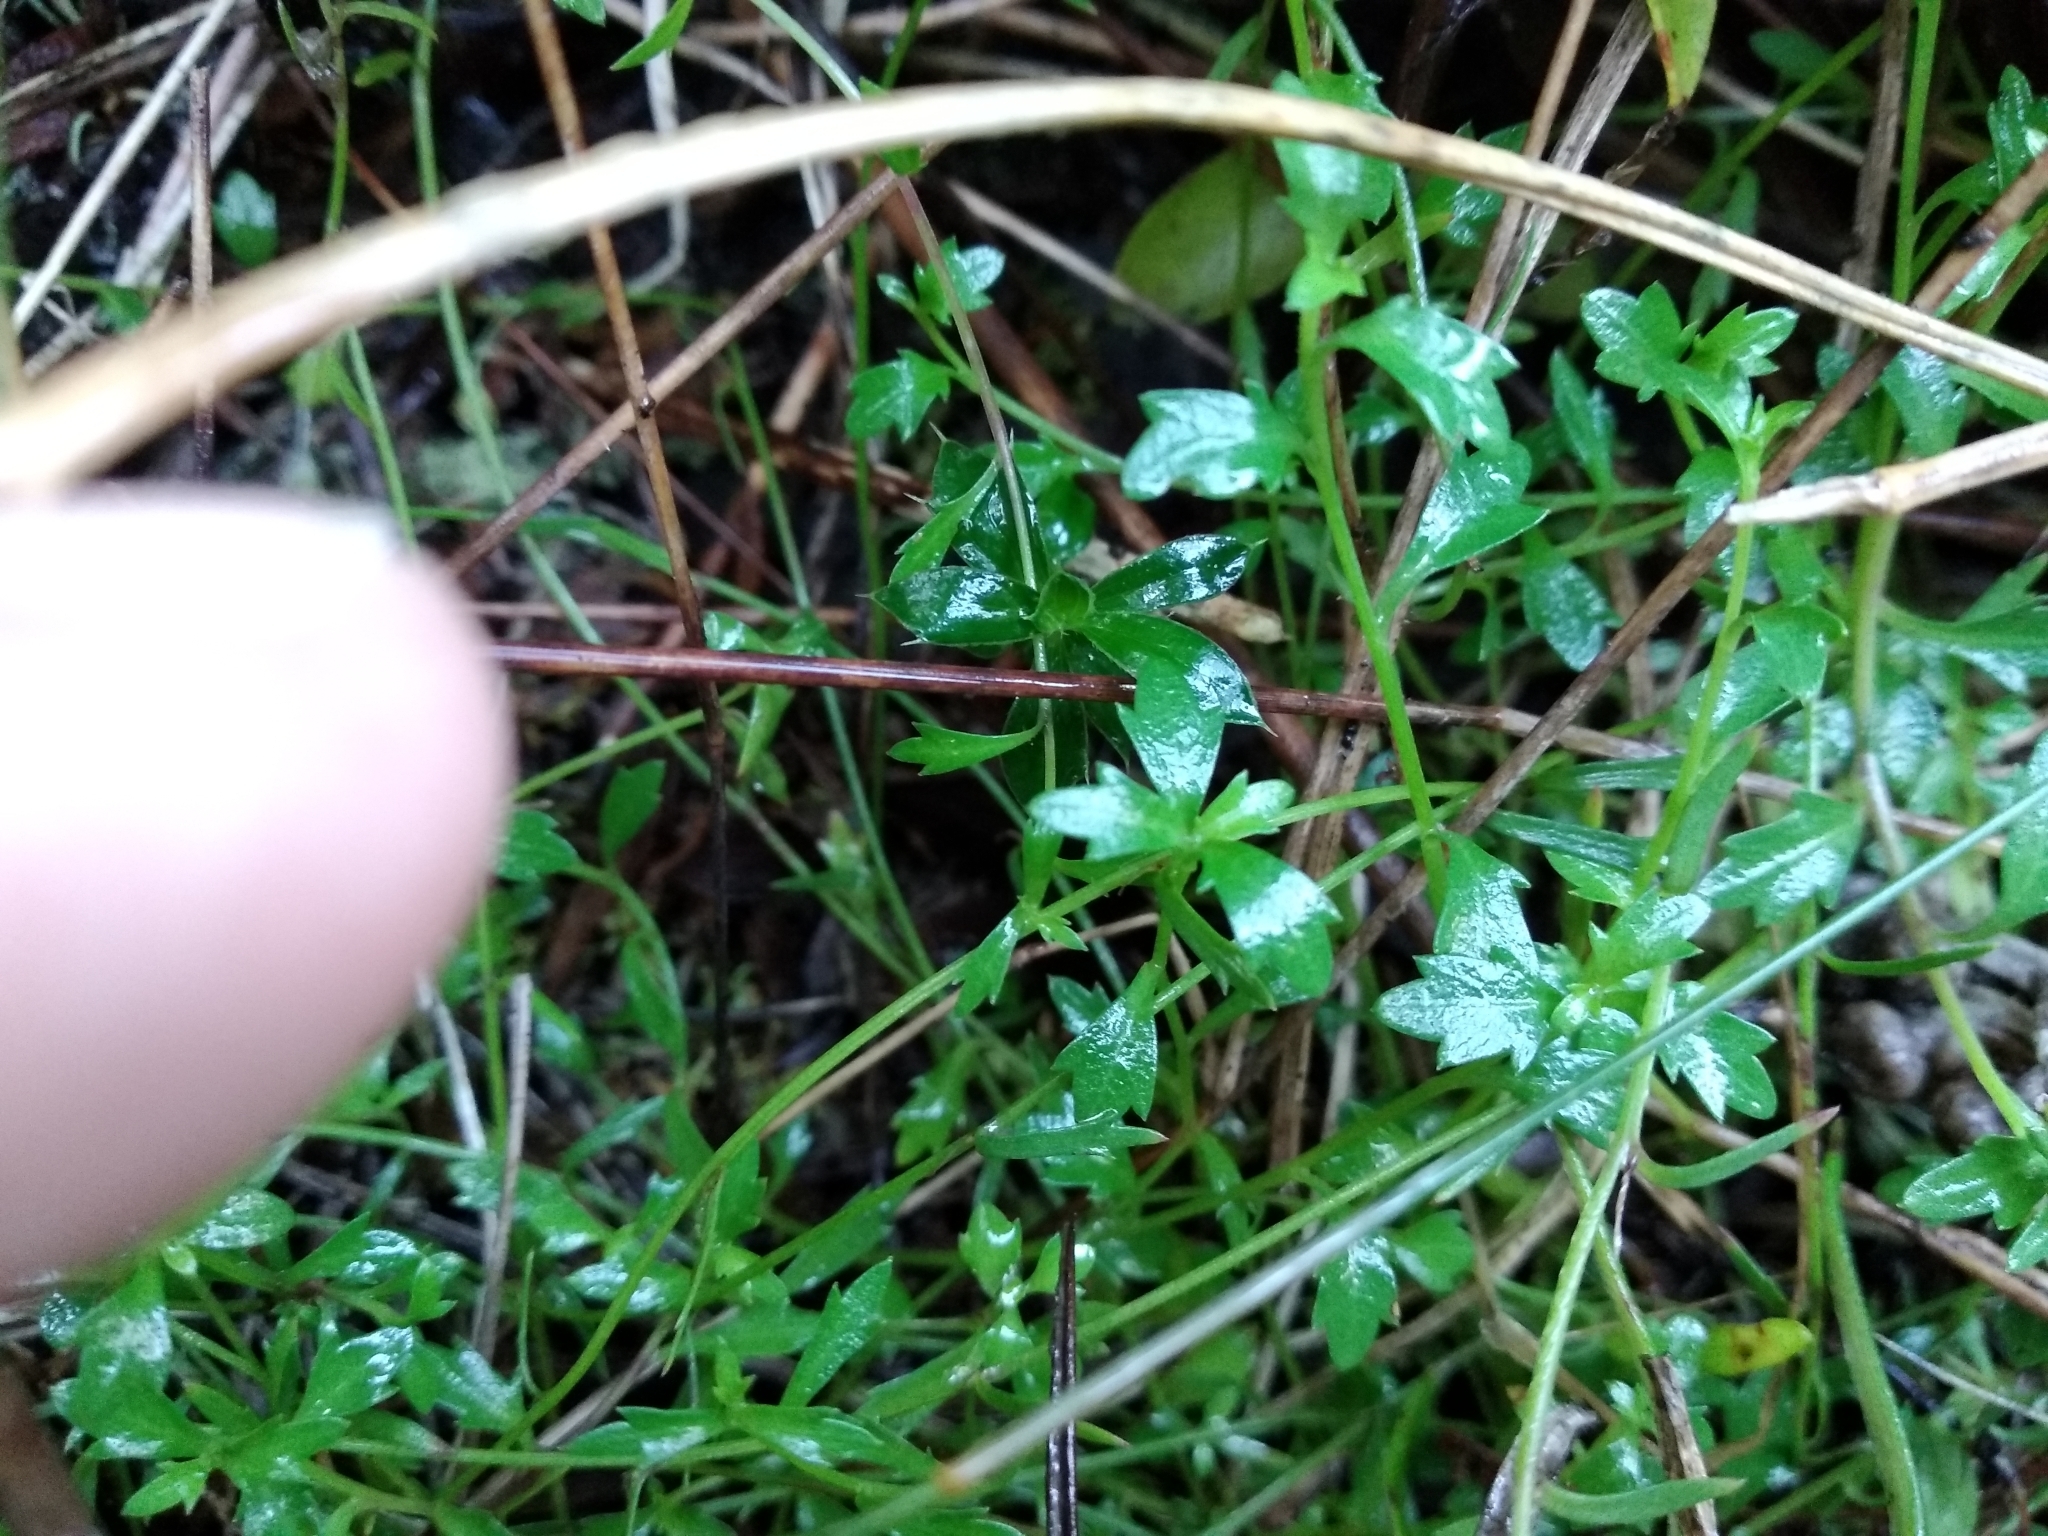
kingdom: Plantae
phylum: Tracheophyta
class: Magnoliopsida
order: Asterales
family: Campanulaceae
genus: Lobelia
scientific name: Lobelia eckloniana
